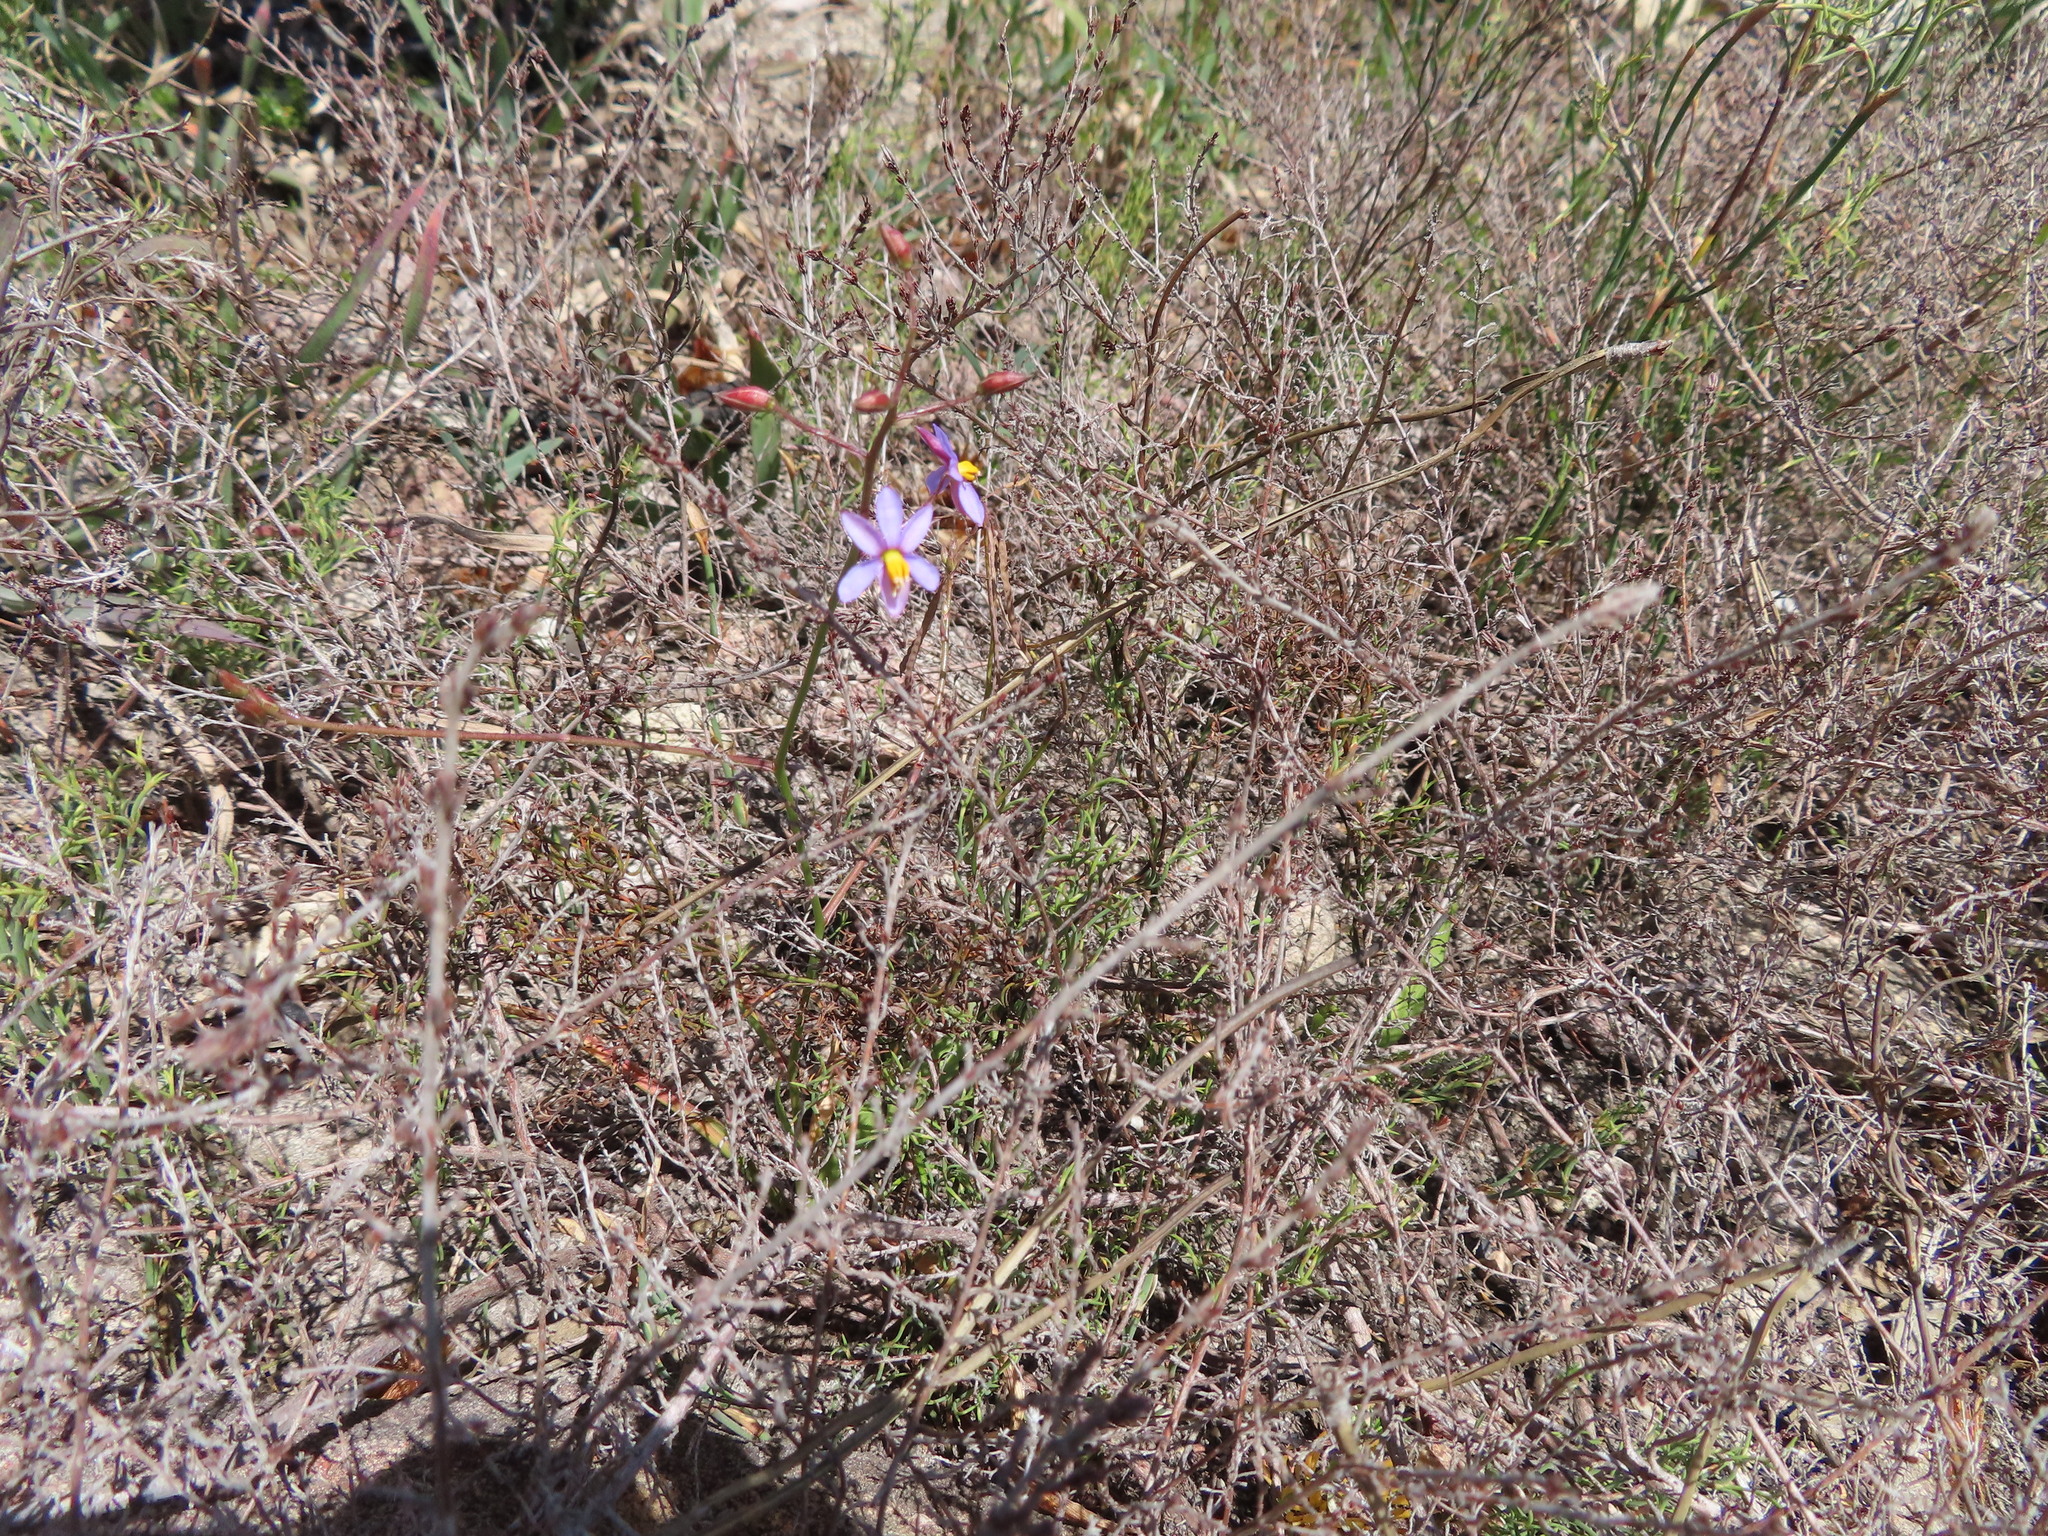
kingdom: Plantae
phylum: Tracheophyta
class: Liliopsida
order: Asparagales
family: Tecophilaeaceae
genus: Cyanella
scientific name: Cyanella hyacinthoides
